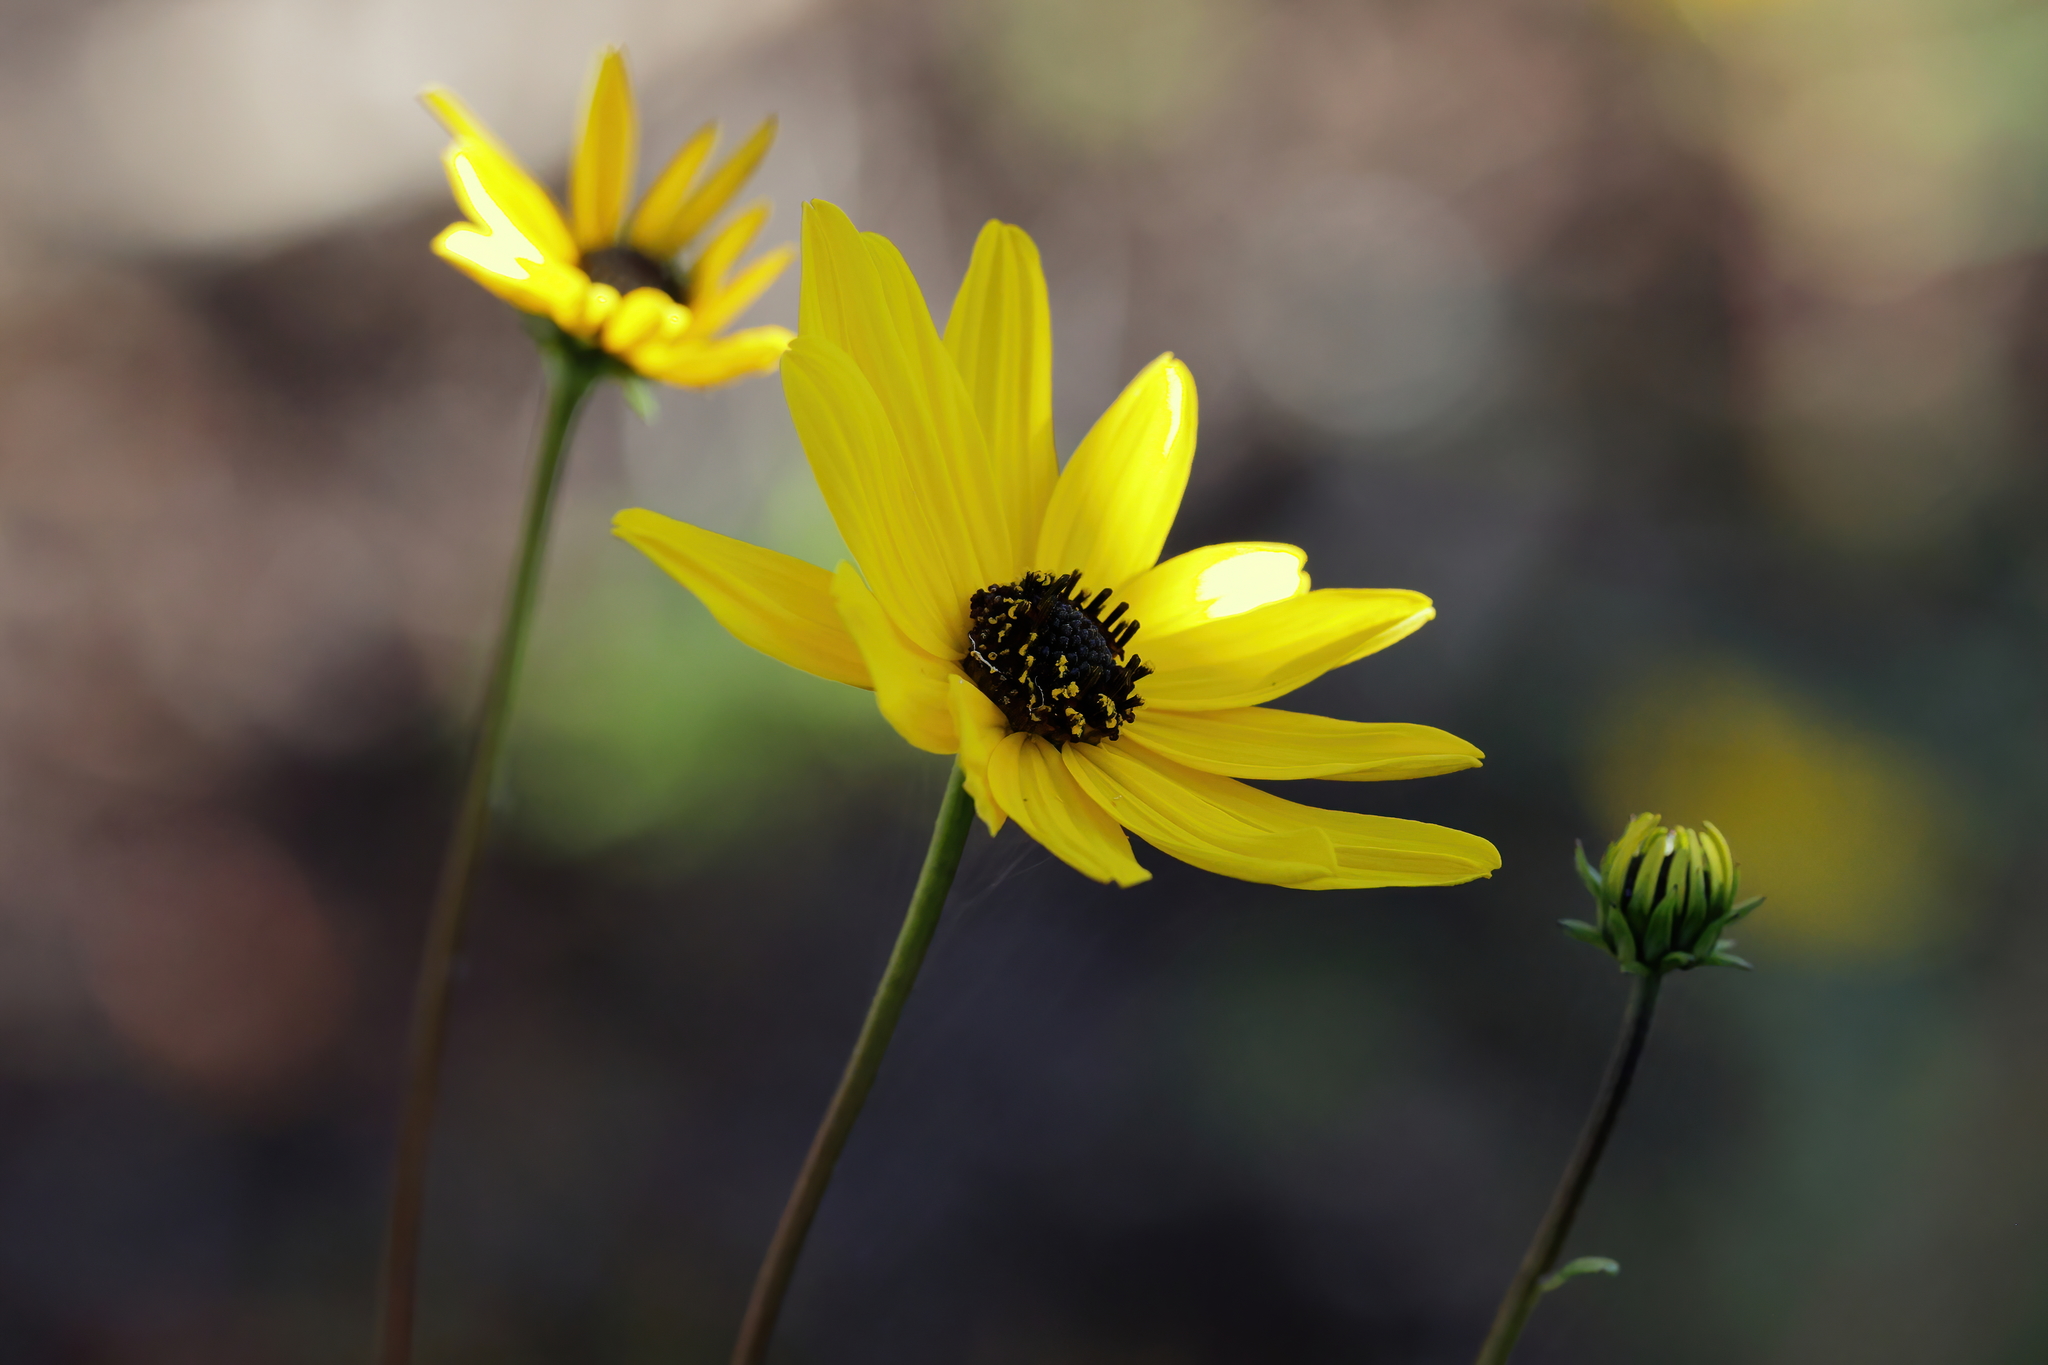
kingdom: Plantae
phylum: Tracheophyta
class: Magnoliopsida
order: Asterales
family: Asteraceae
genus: Helianthus
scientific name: Helianthus angustifolius
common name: Swamp sunflower
